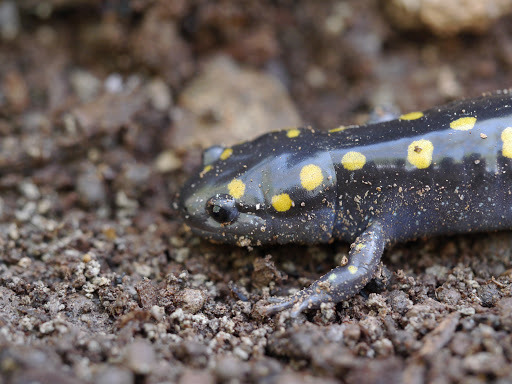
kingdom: Animalia
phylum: Chordata
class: Amphibia
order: Caudata
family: Ambystomatidae
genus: Ambystoma
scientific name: Ambystoma maculatum
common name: Spotted salamander
